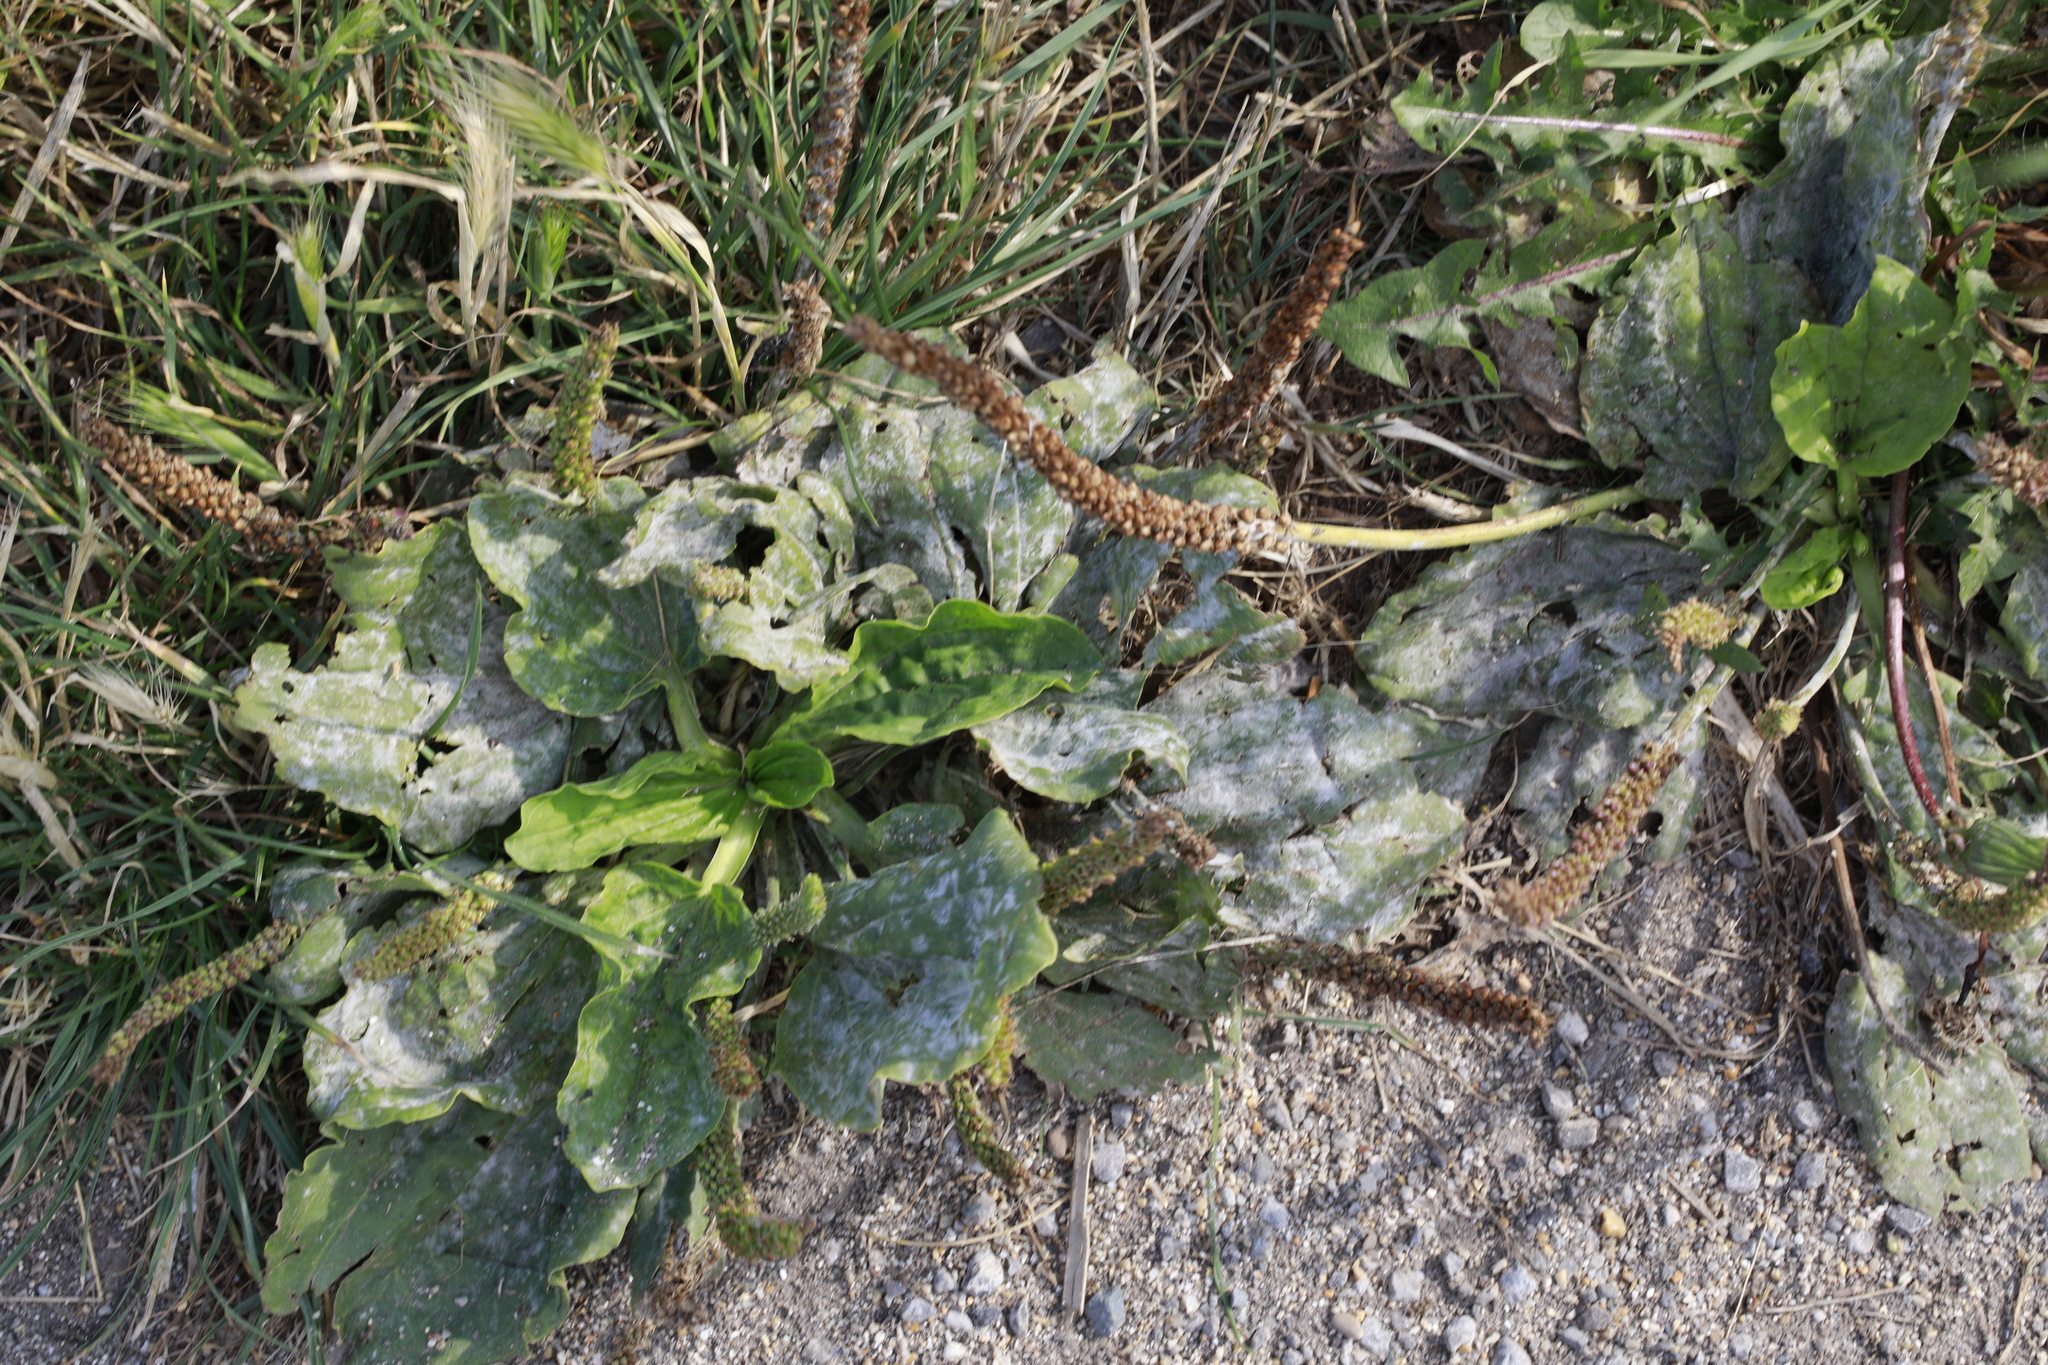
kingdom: Fungi
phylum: Ascomycota
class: Leotiomycetes
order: Helotiales
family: Erysiphaceae
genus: Golovinomyces
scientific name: Golovinomyces sordidus
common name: Plantain mildew
